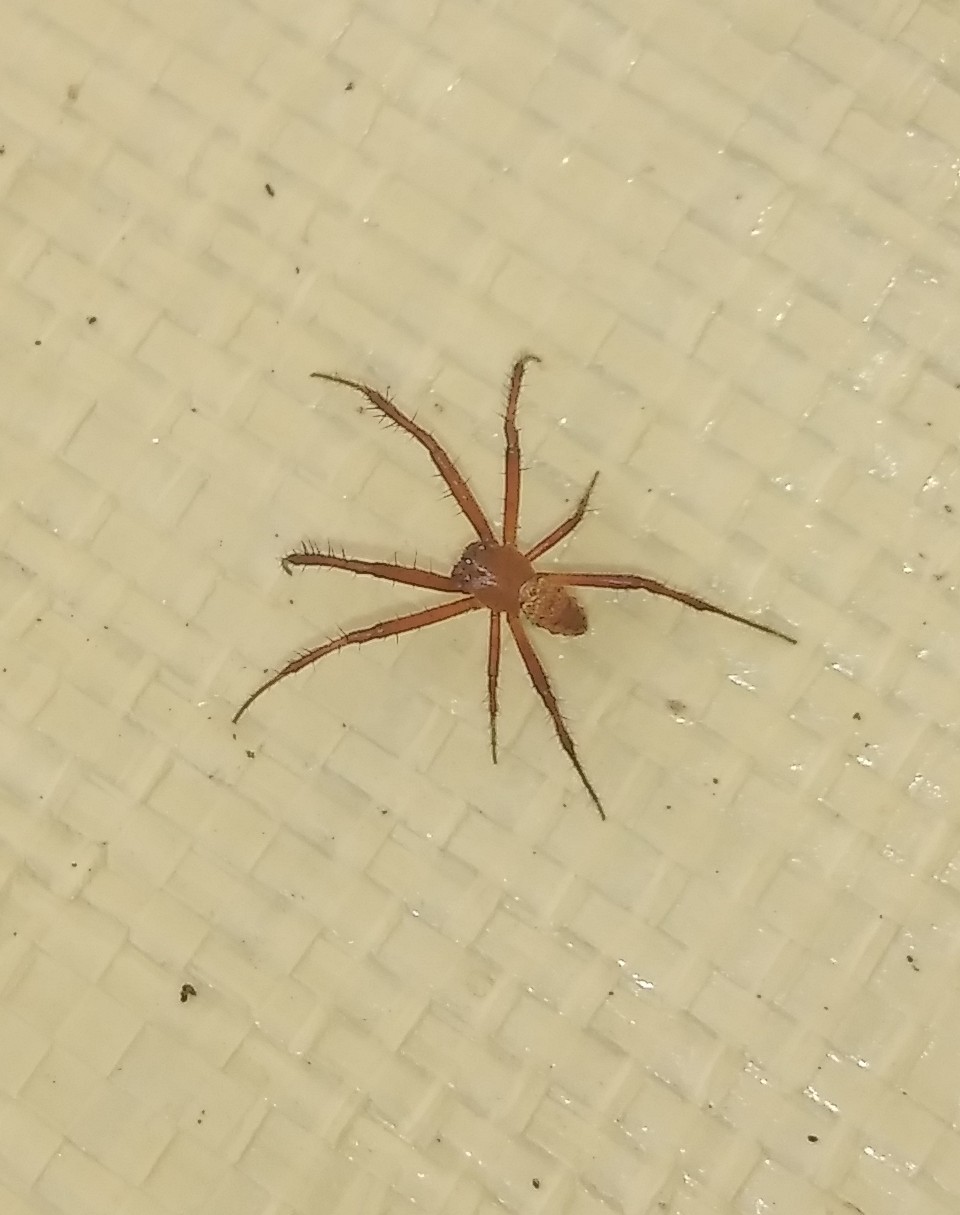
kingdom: Animalia
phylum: Arthropoda
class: Arachnida
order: Araneae
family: Araneidae
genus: Gea
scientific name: Gea heptagon
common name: Orb weavers
